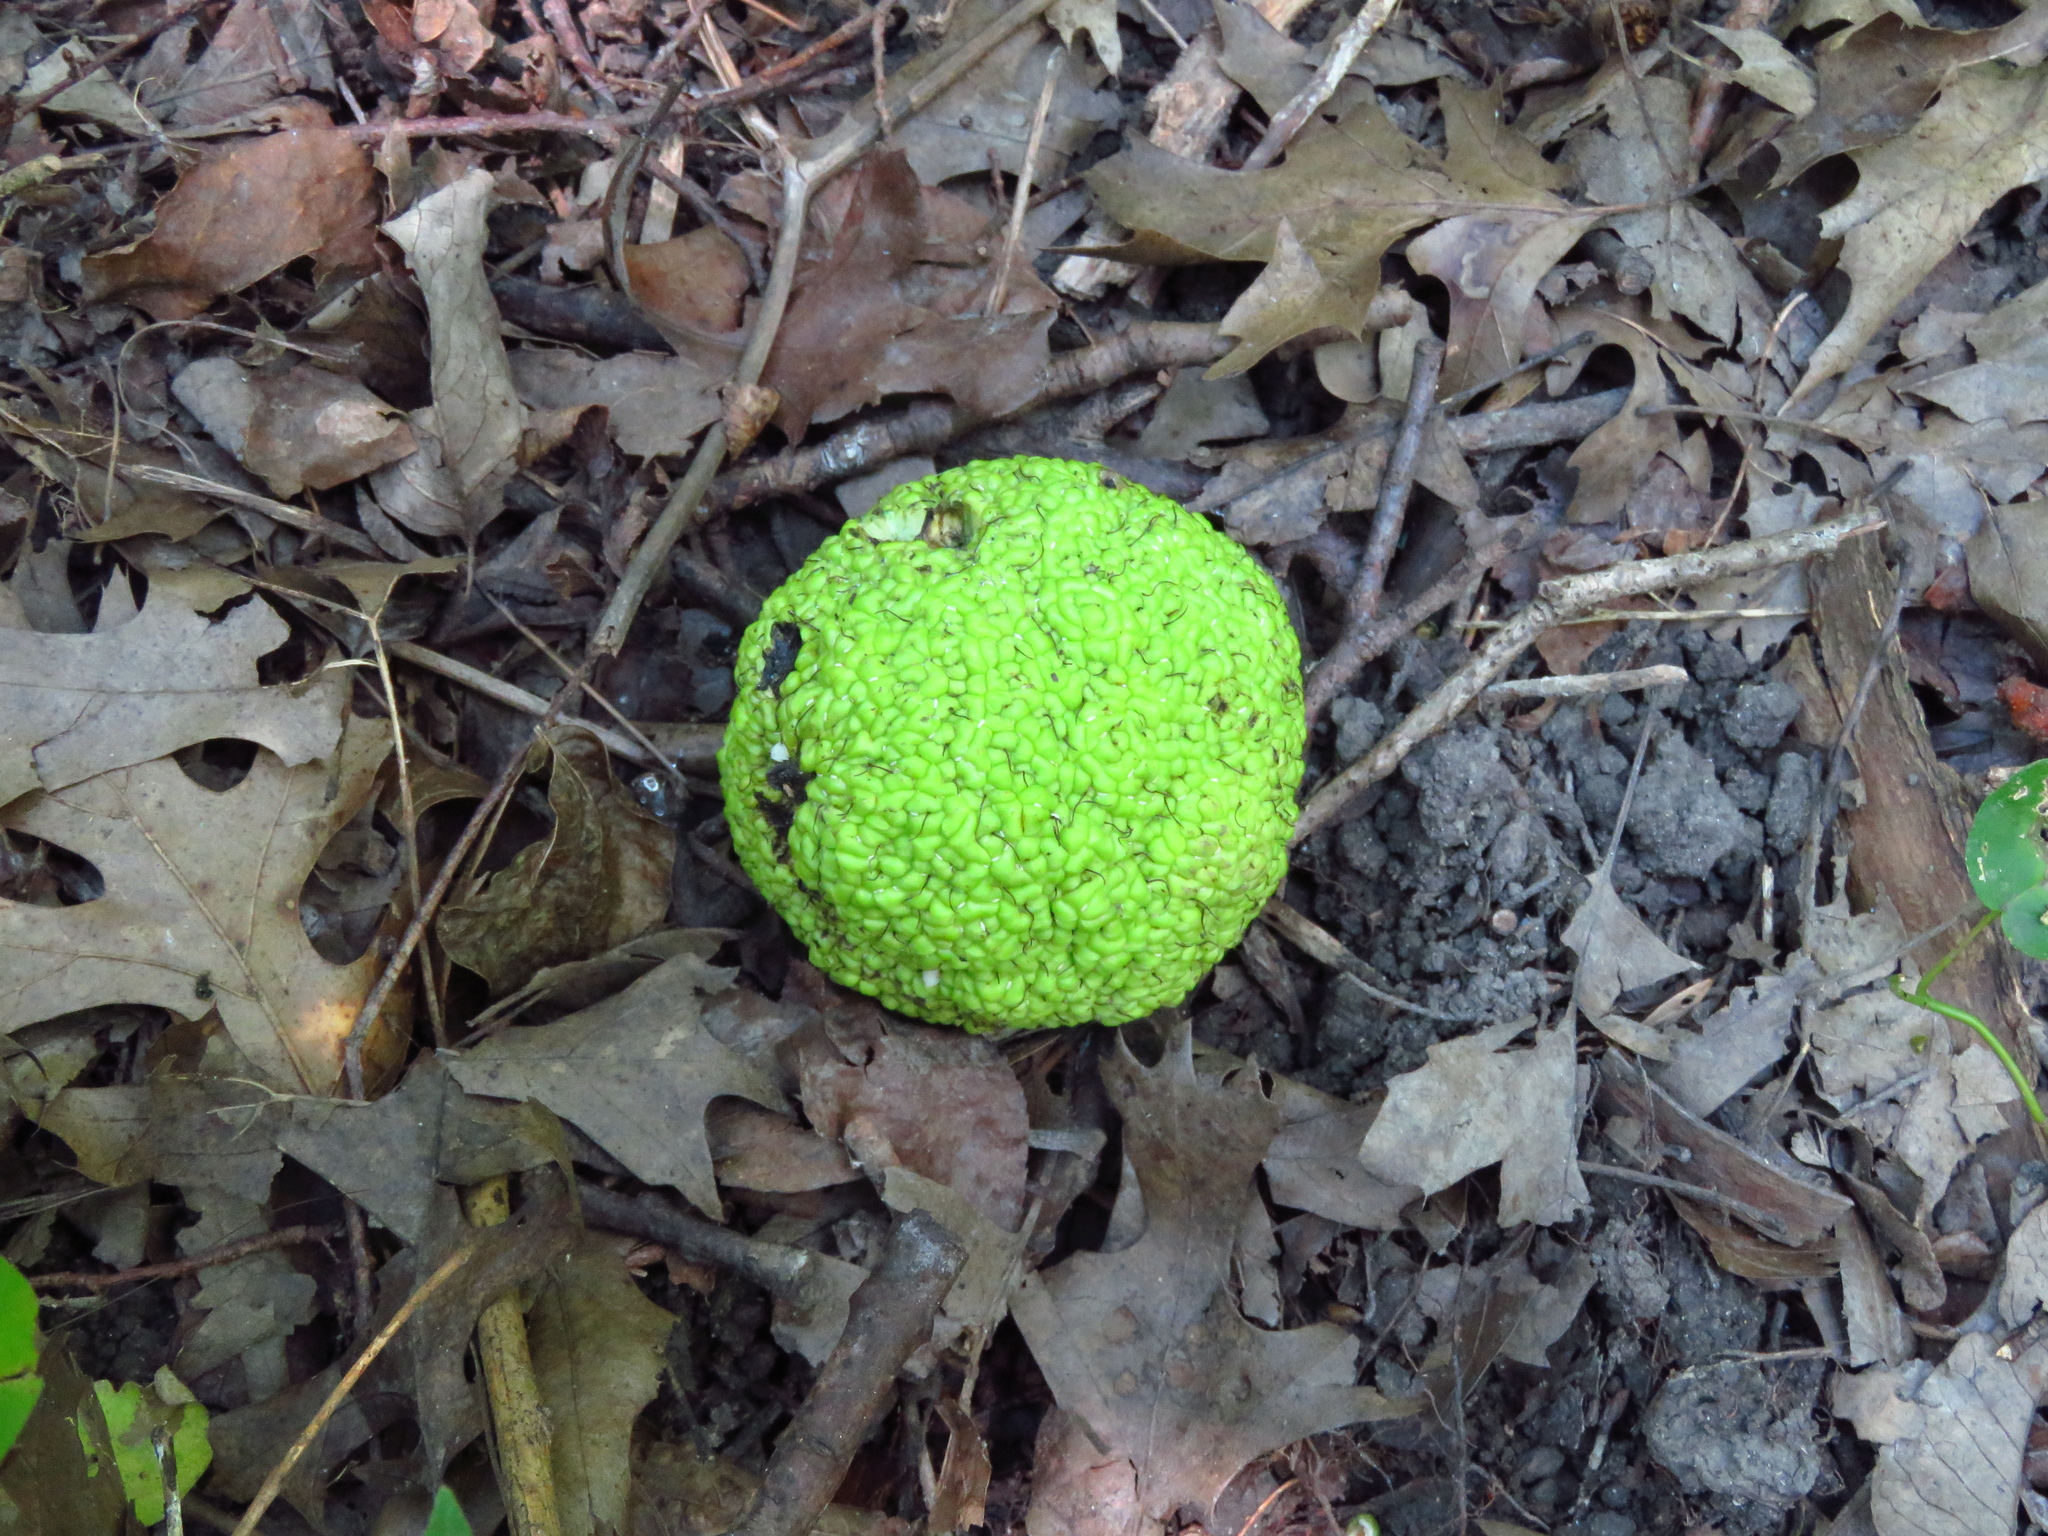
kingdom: Plantae
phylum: Tracheophyta
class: Magnoliopsida
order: Rosales
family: Moraceae
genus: Maclura
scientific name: Maclura pomifera
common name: Osage-orange
